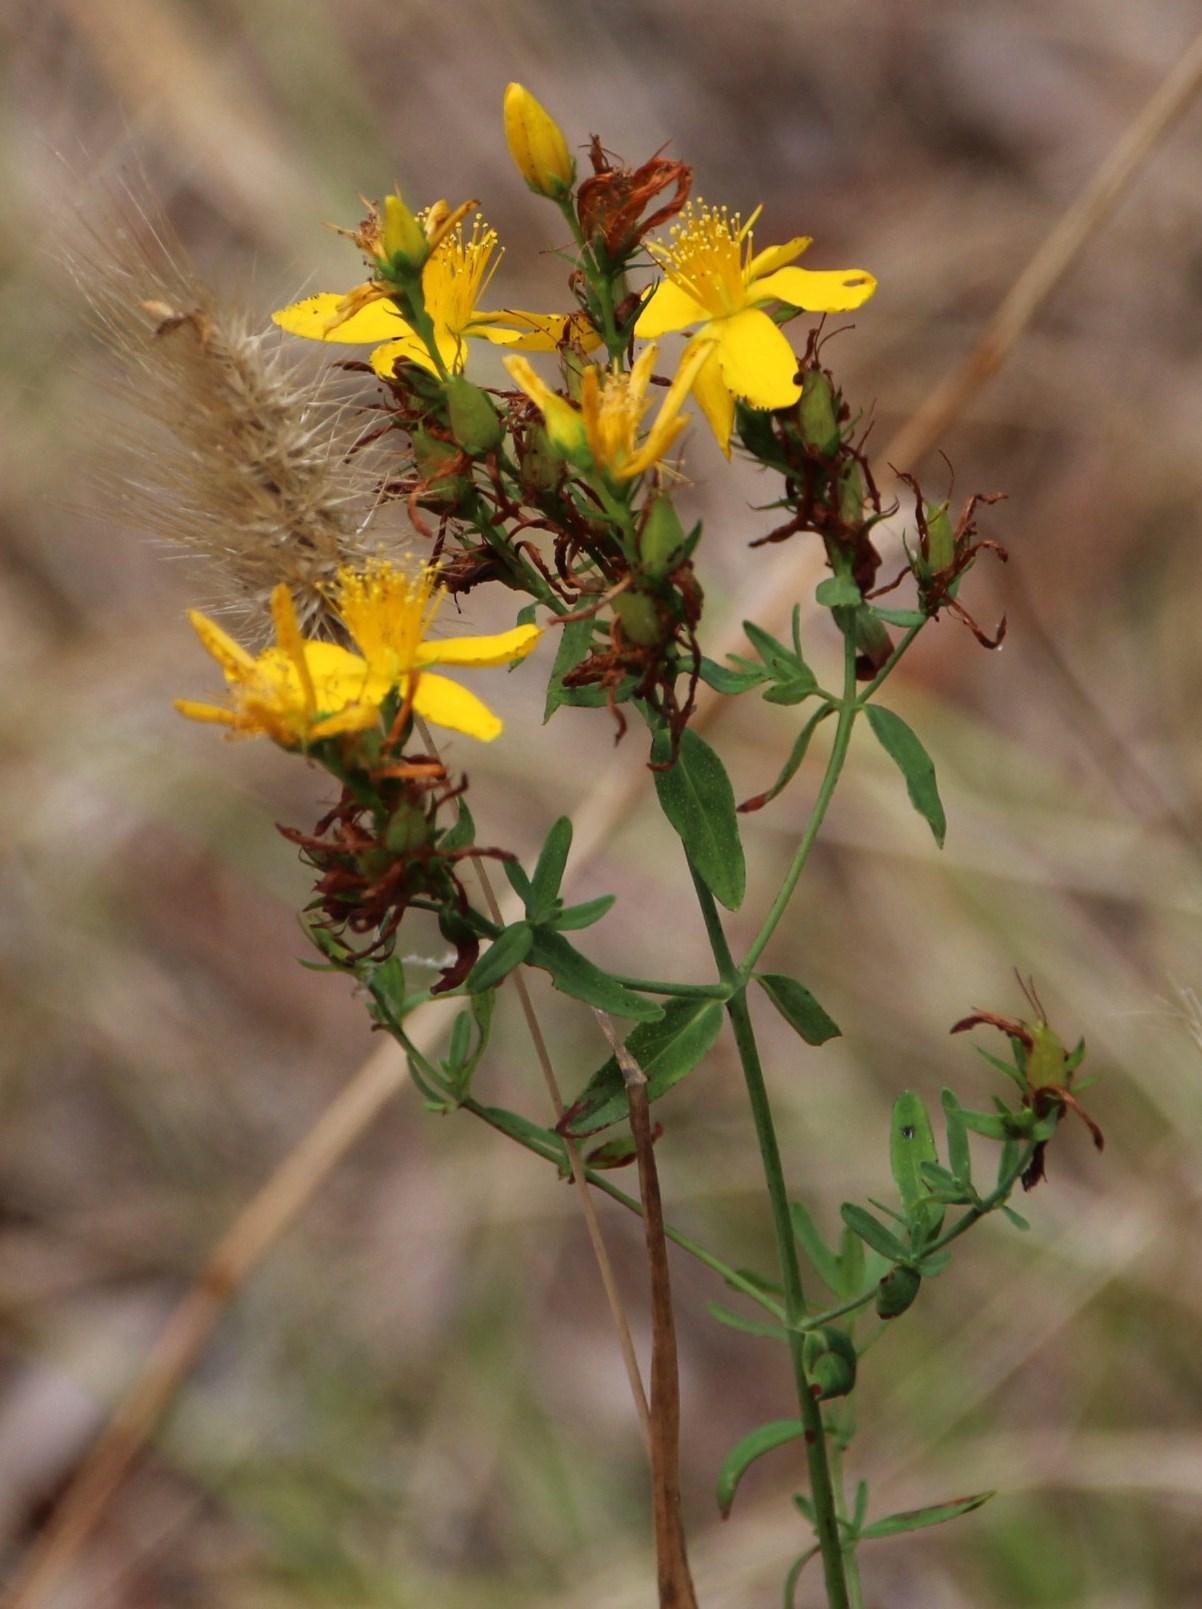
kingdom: Plantae
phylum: Tracheophyta
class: Magnoliopsida
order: Malpighiales
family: Hypericaceae
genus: Hypericum
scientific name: Hypericum perforatum
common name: Common st. johnswort
